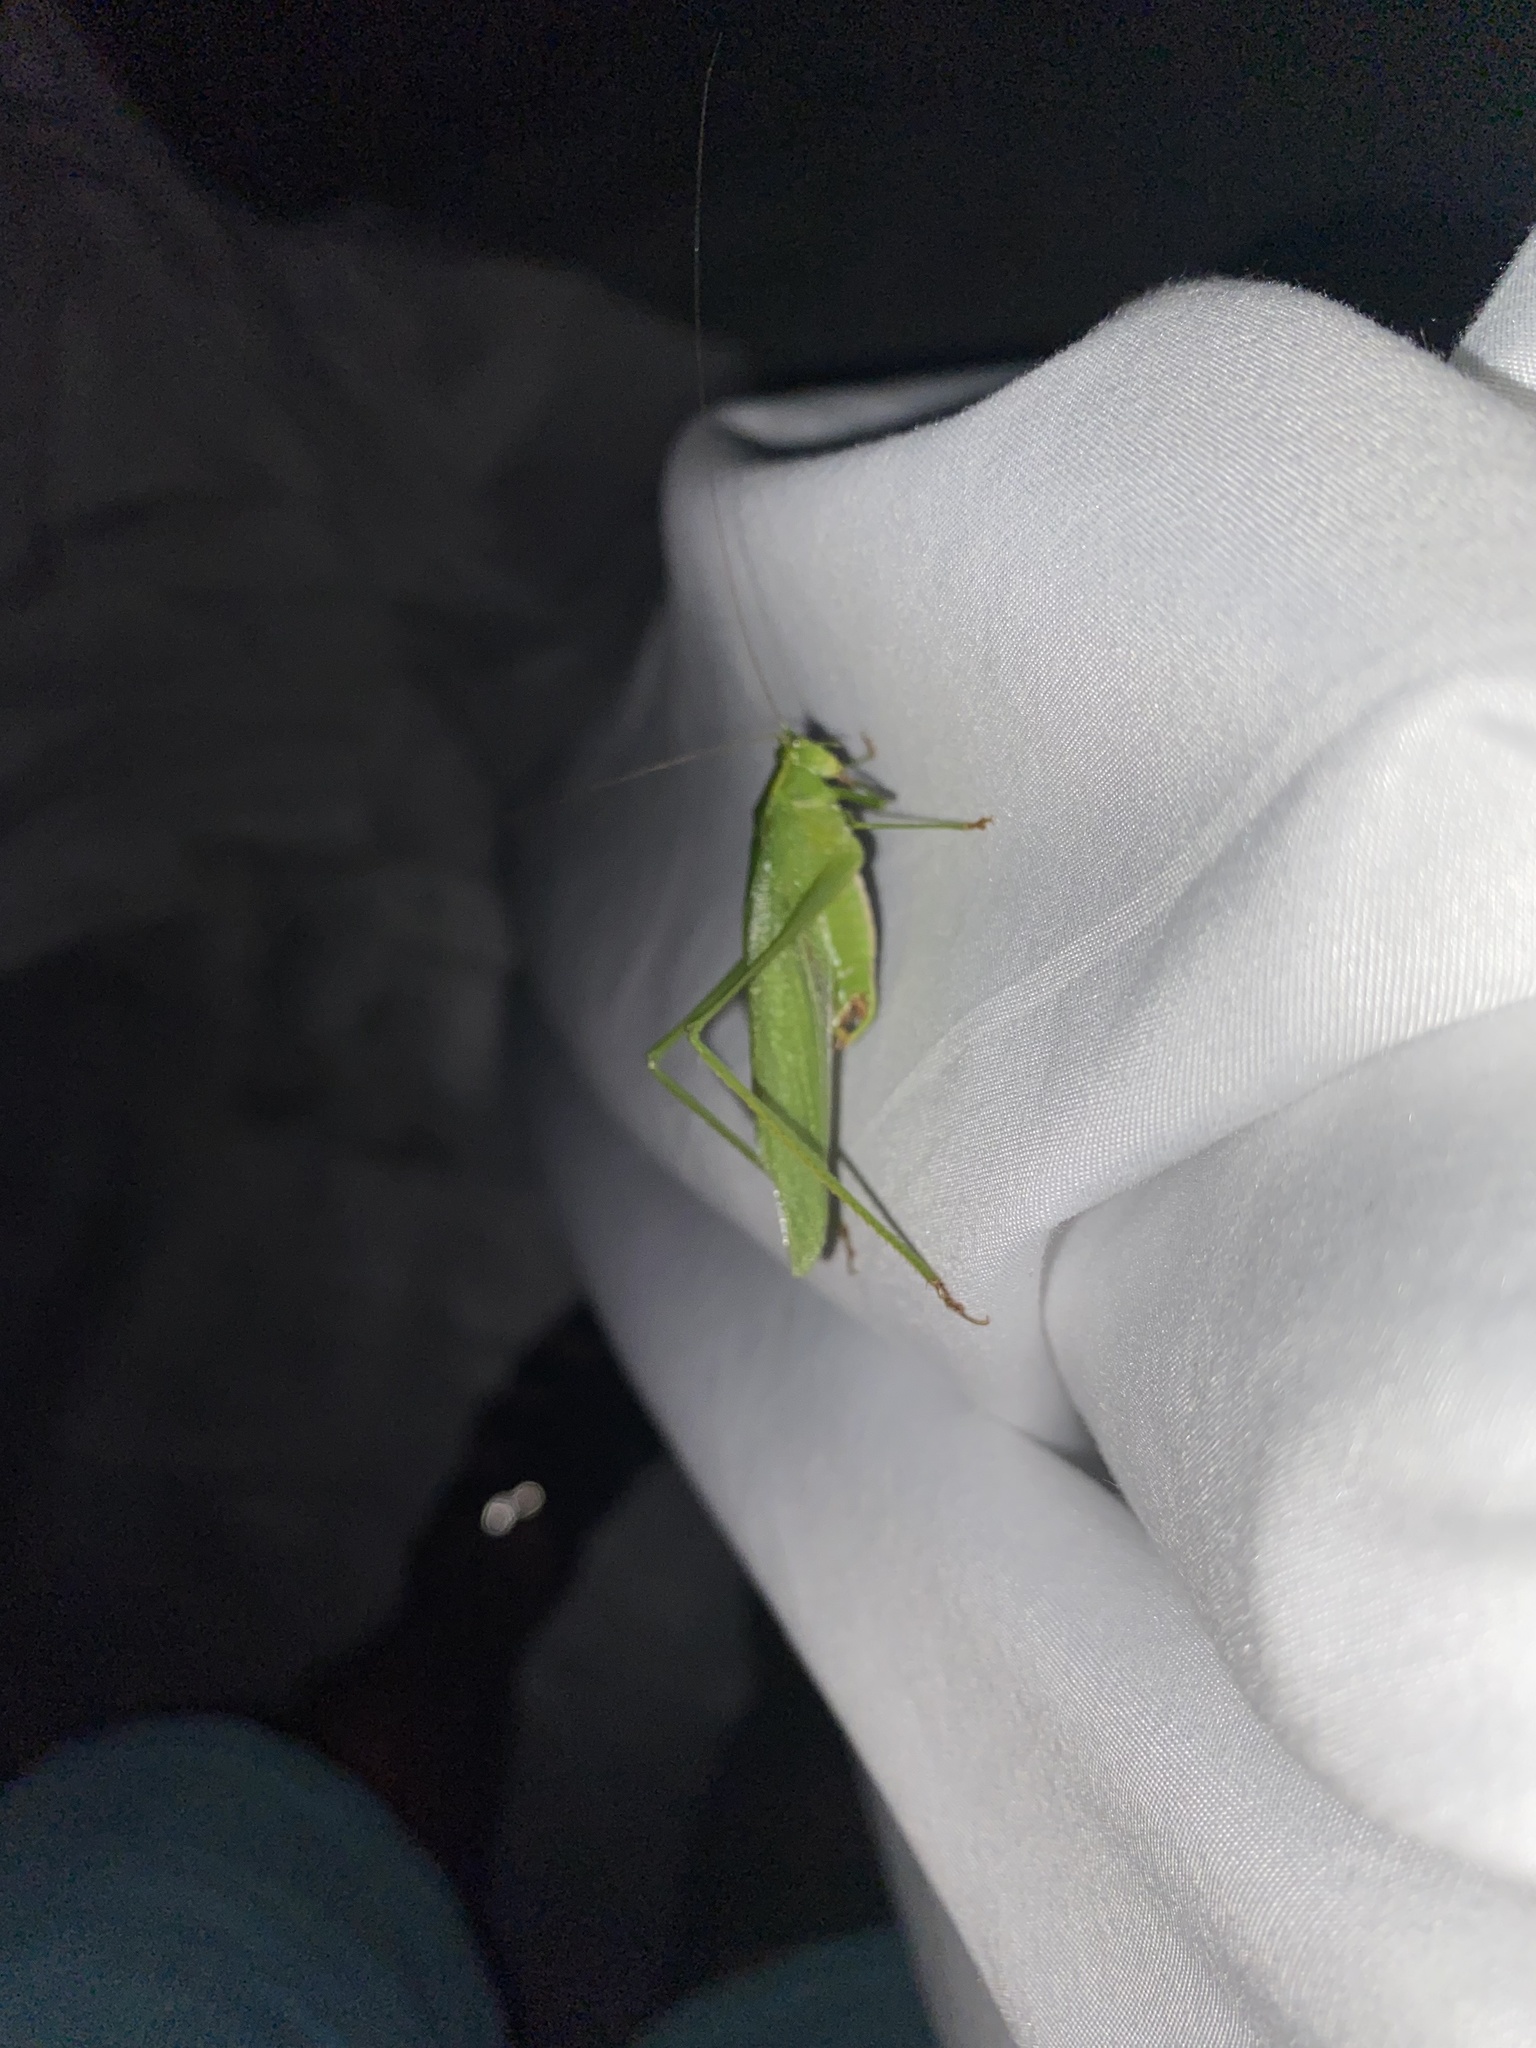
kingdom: Animalia
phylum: Arthropoda
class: Insecta
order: Orthoptera
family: Tettigoniidae
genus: Scudderia
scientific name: Scudderia furcata
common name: Fork-tailed bush katydid
